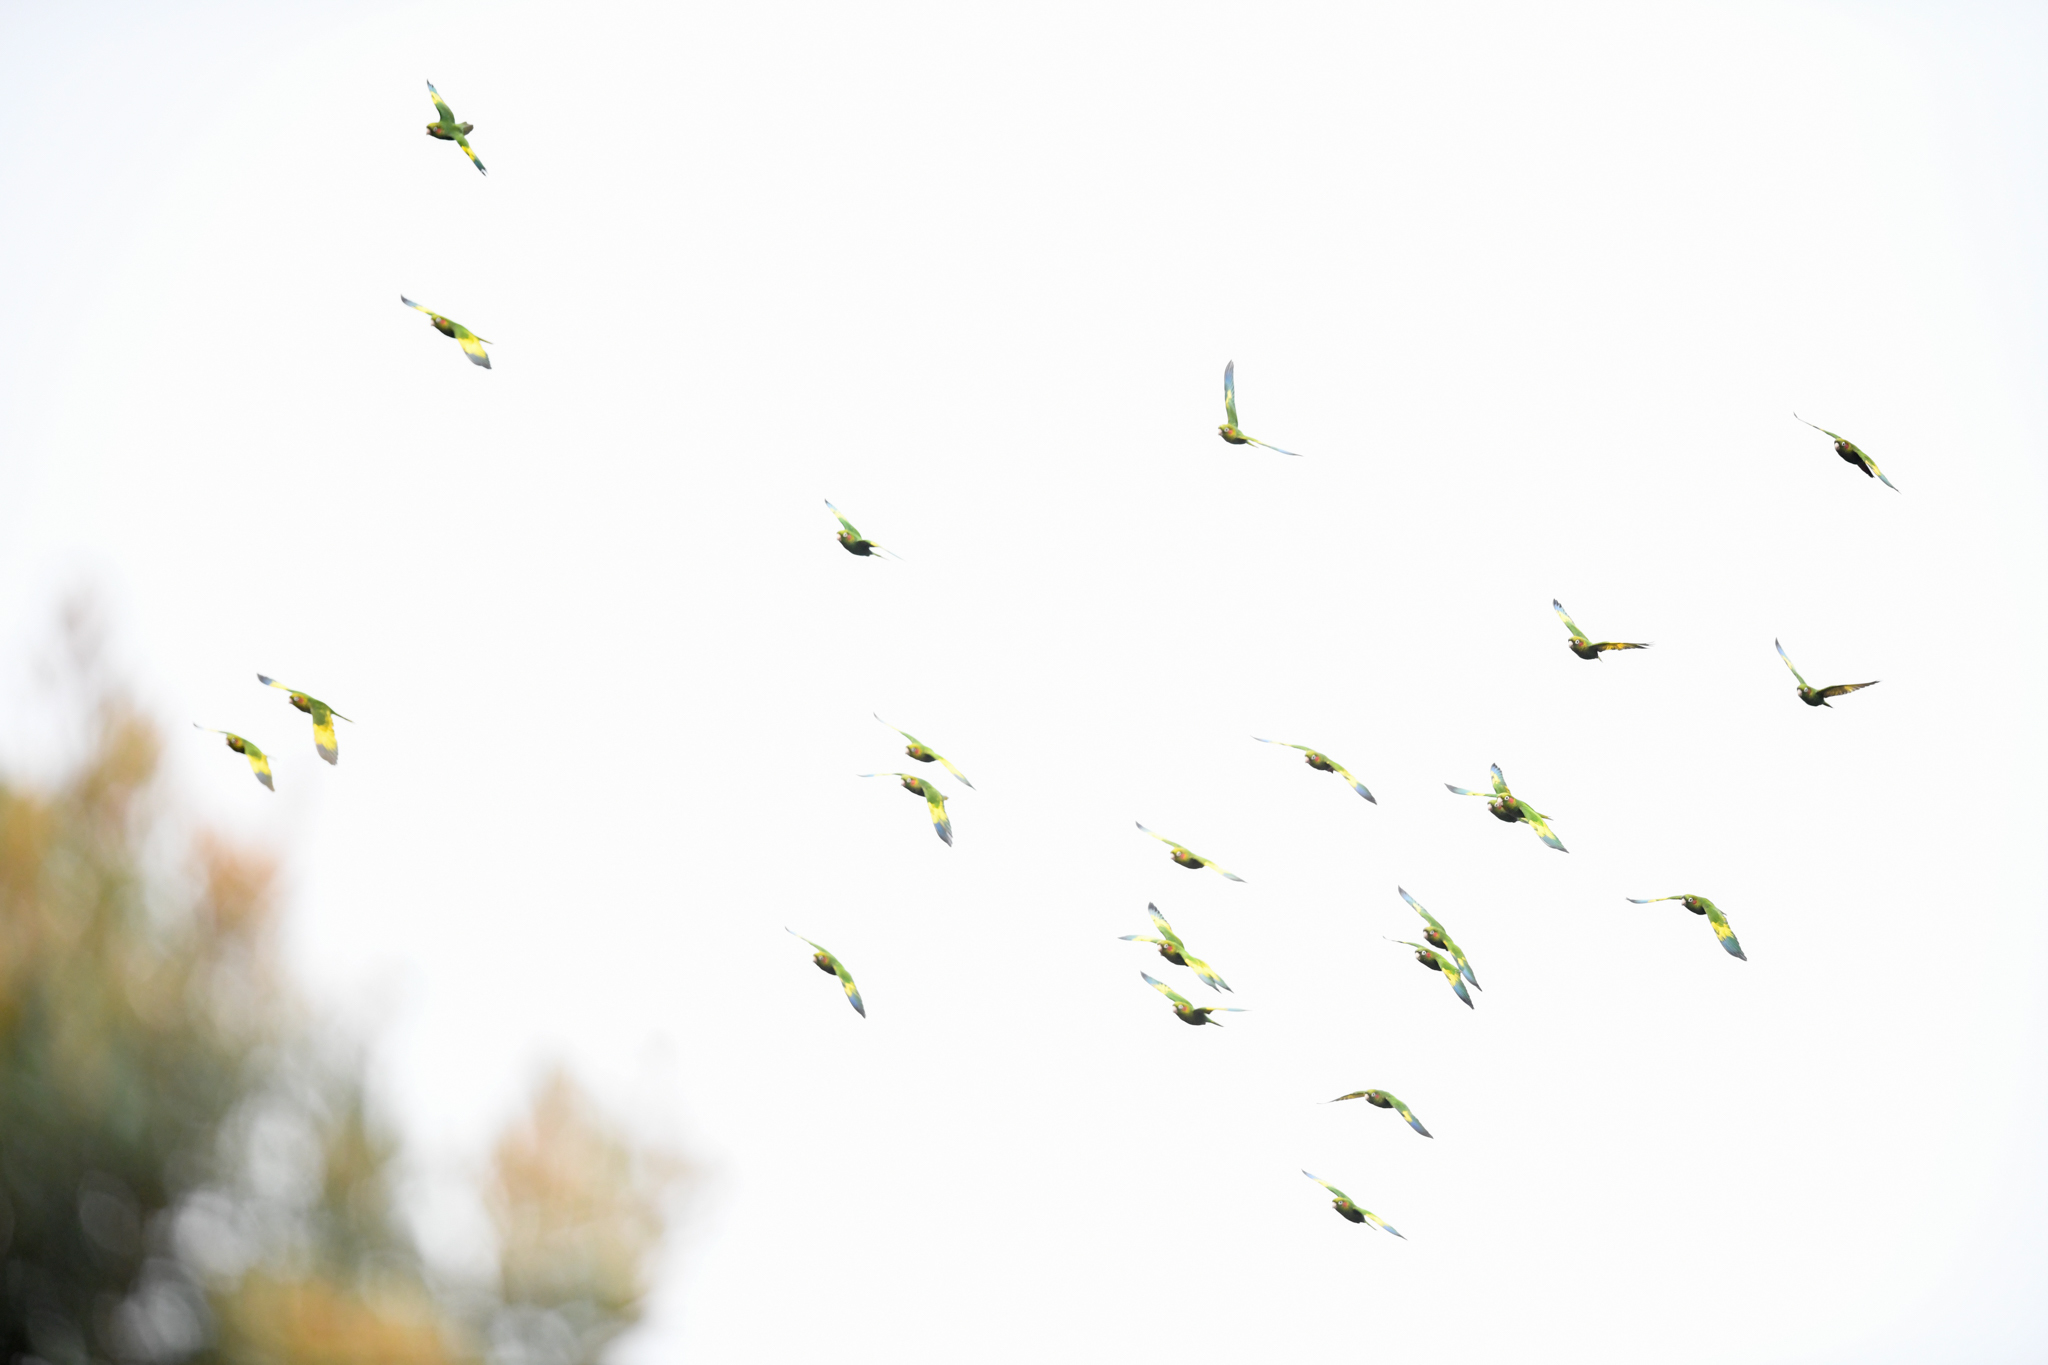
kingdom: Animalia
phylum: Chordata
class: Aves
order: Psittaciformes
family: Psittacidae
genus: Pyrrhura
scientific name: Pyrrhura hoffmanni
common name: Sulphur-winged parakeet
